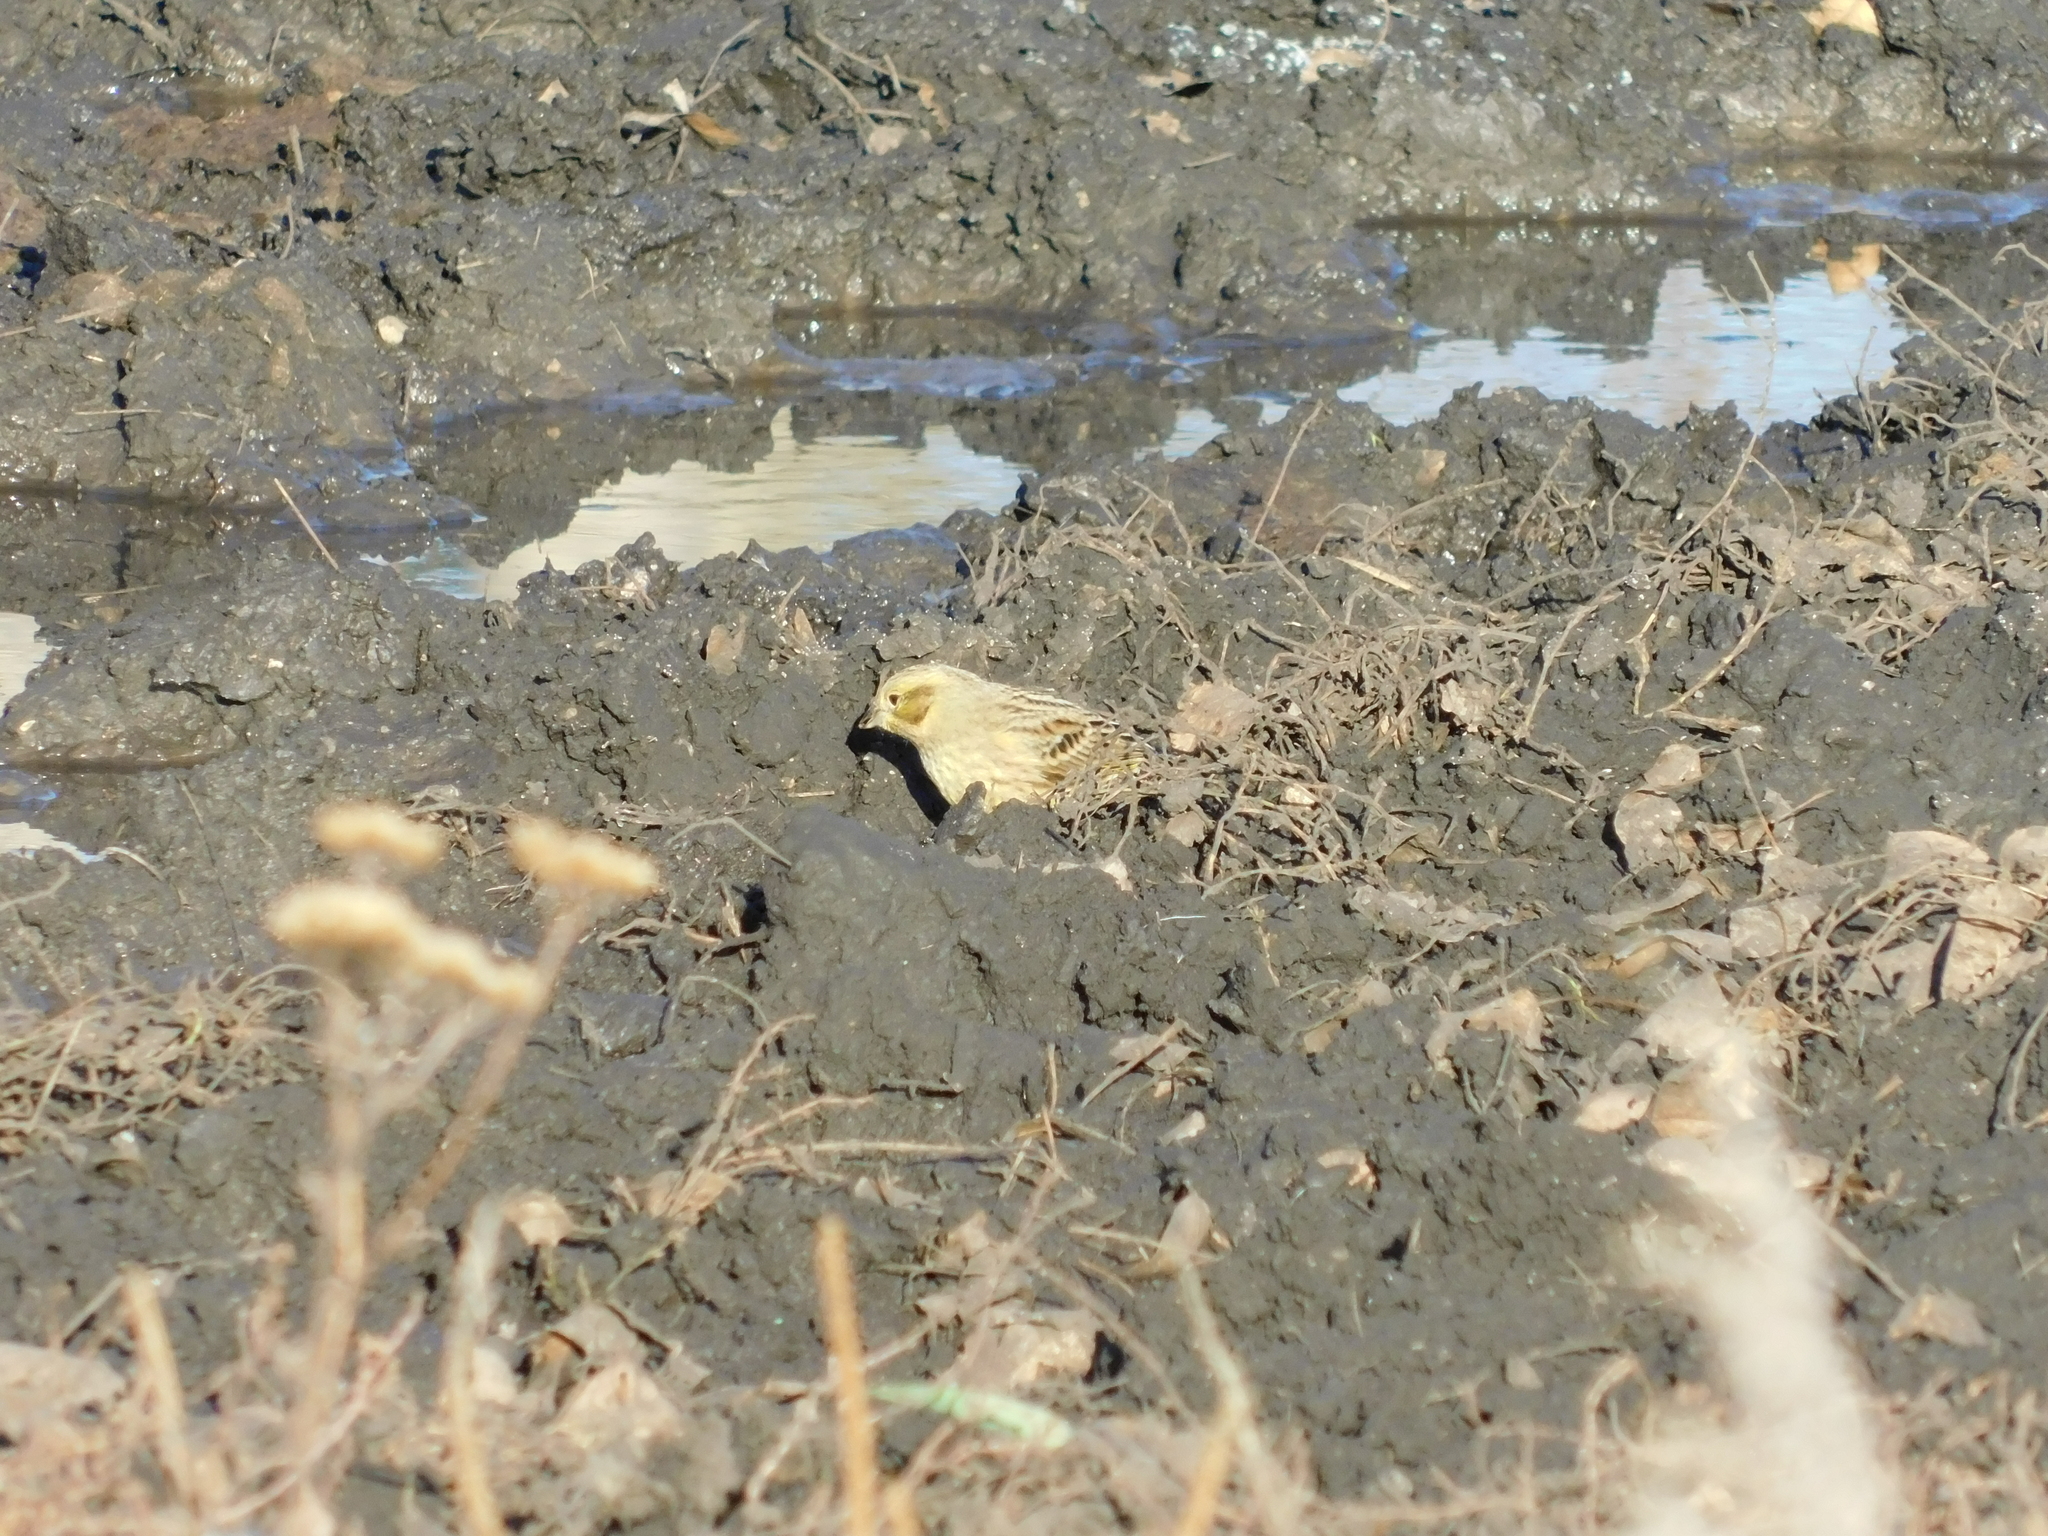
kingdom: Animalia
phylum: Chordata
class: Aves
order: Passeriformes
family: Emberizidae
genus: Emberiza
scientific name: Emberiza citrinella
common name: Yellowhammer
